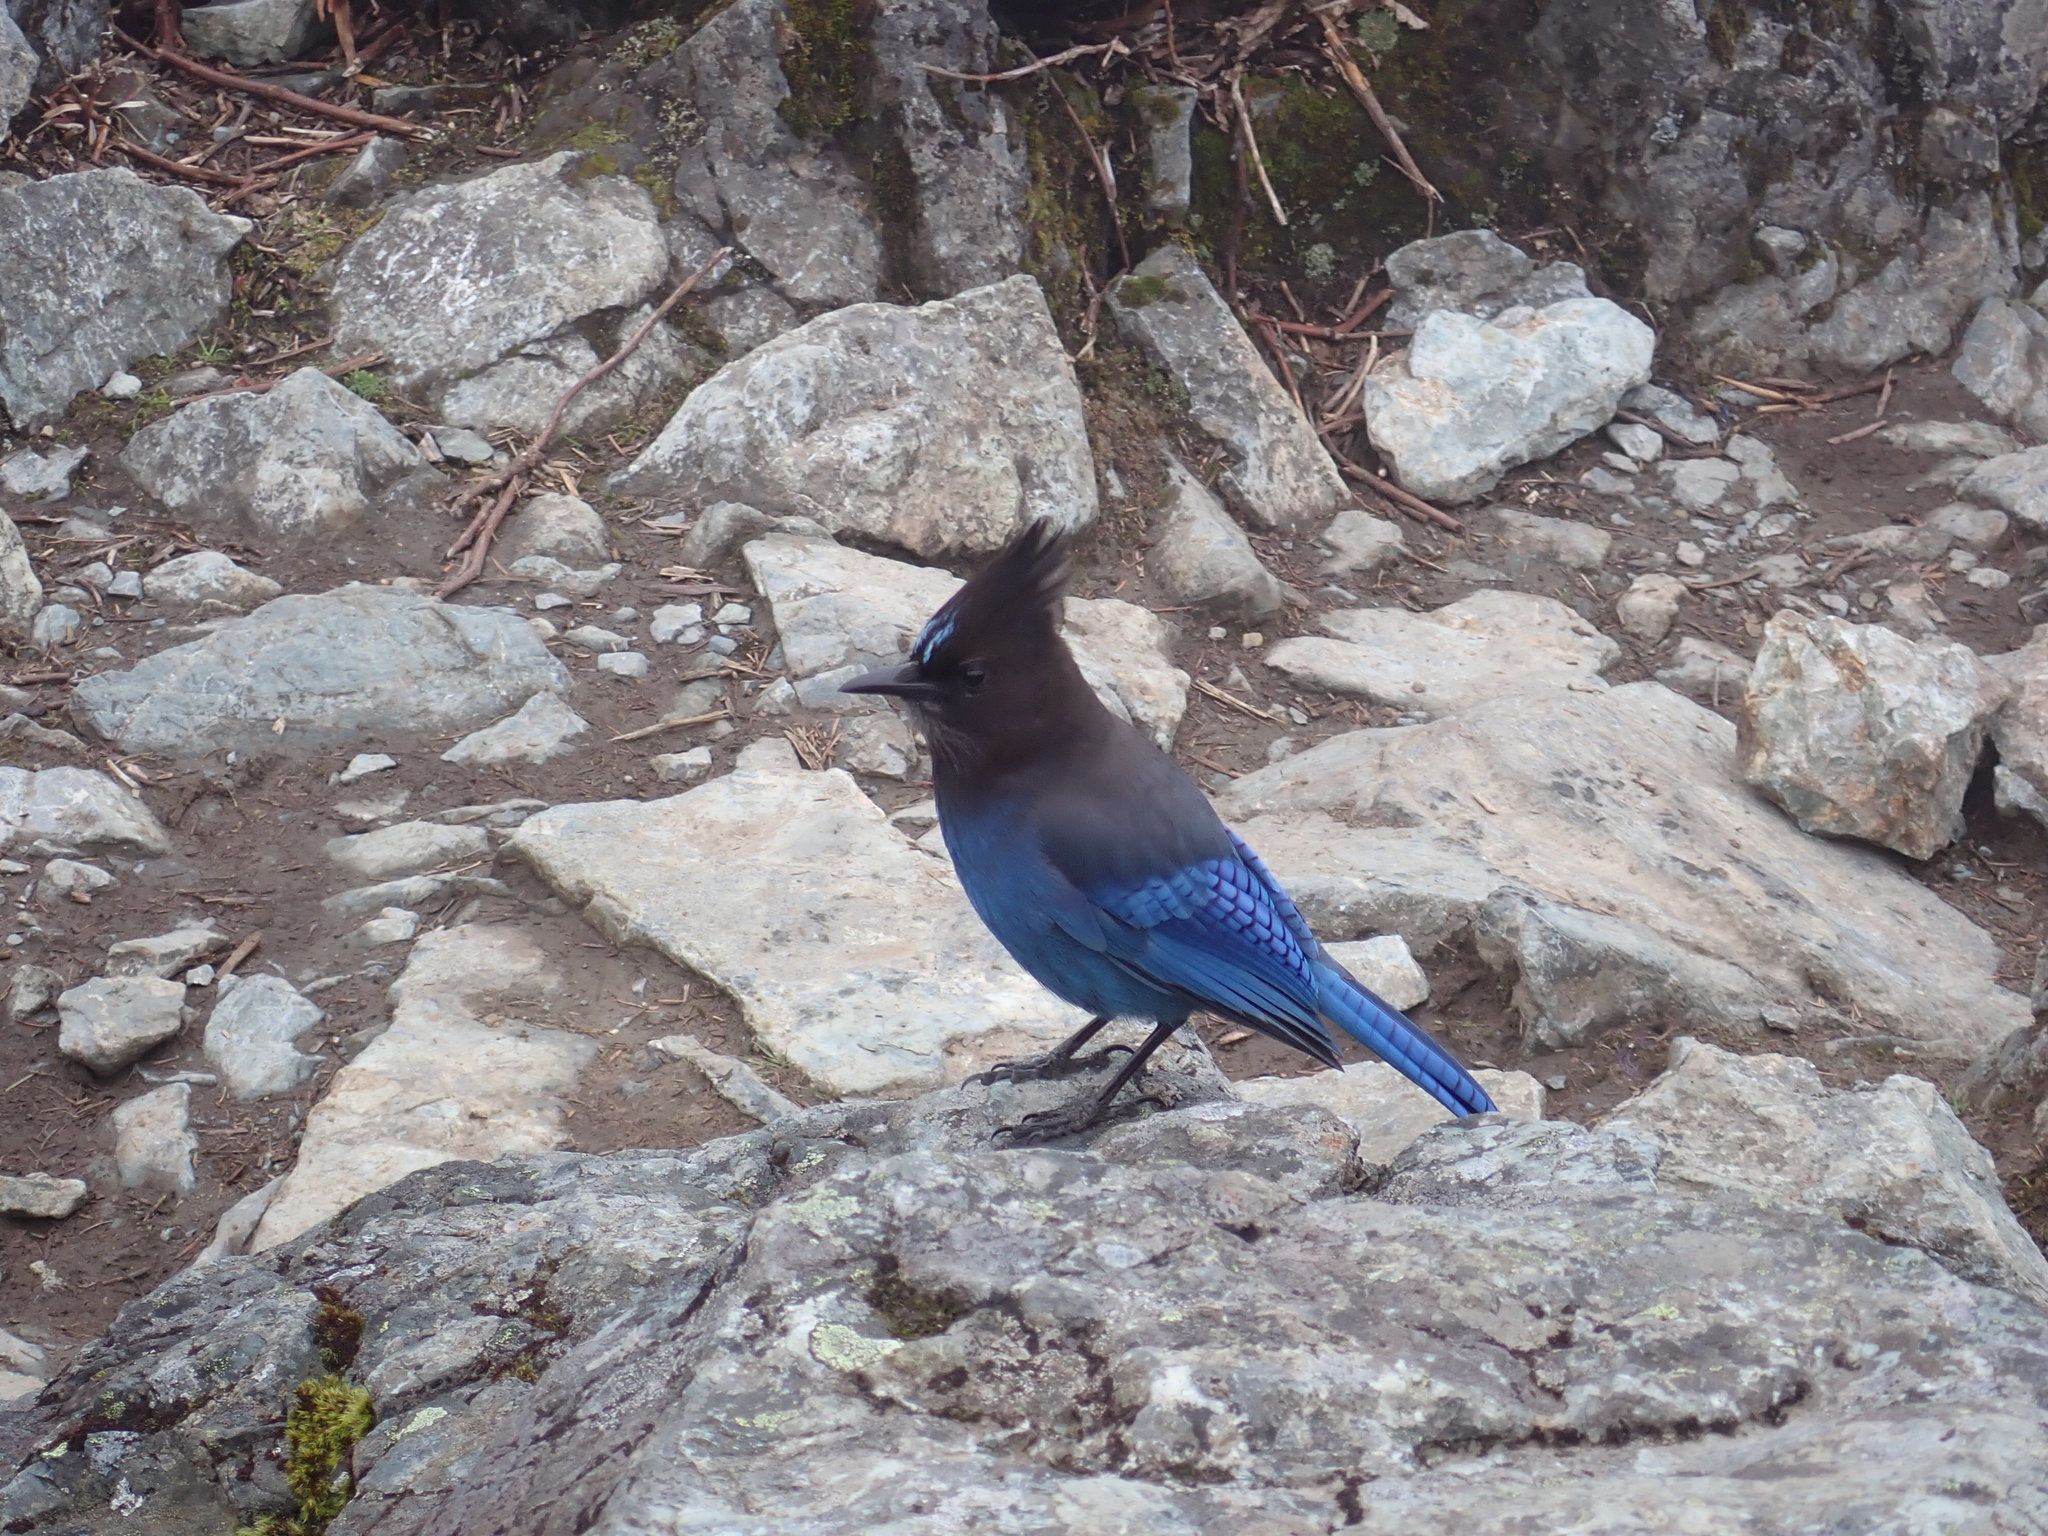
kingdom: Animalia
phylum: Chordata
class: Aves
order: Passeriformes
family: Corvidae
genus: Cyanocitta
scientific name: Cyanocitta stelleri
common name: Steller's jay
